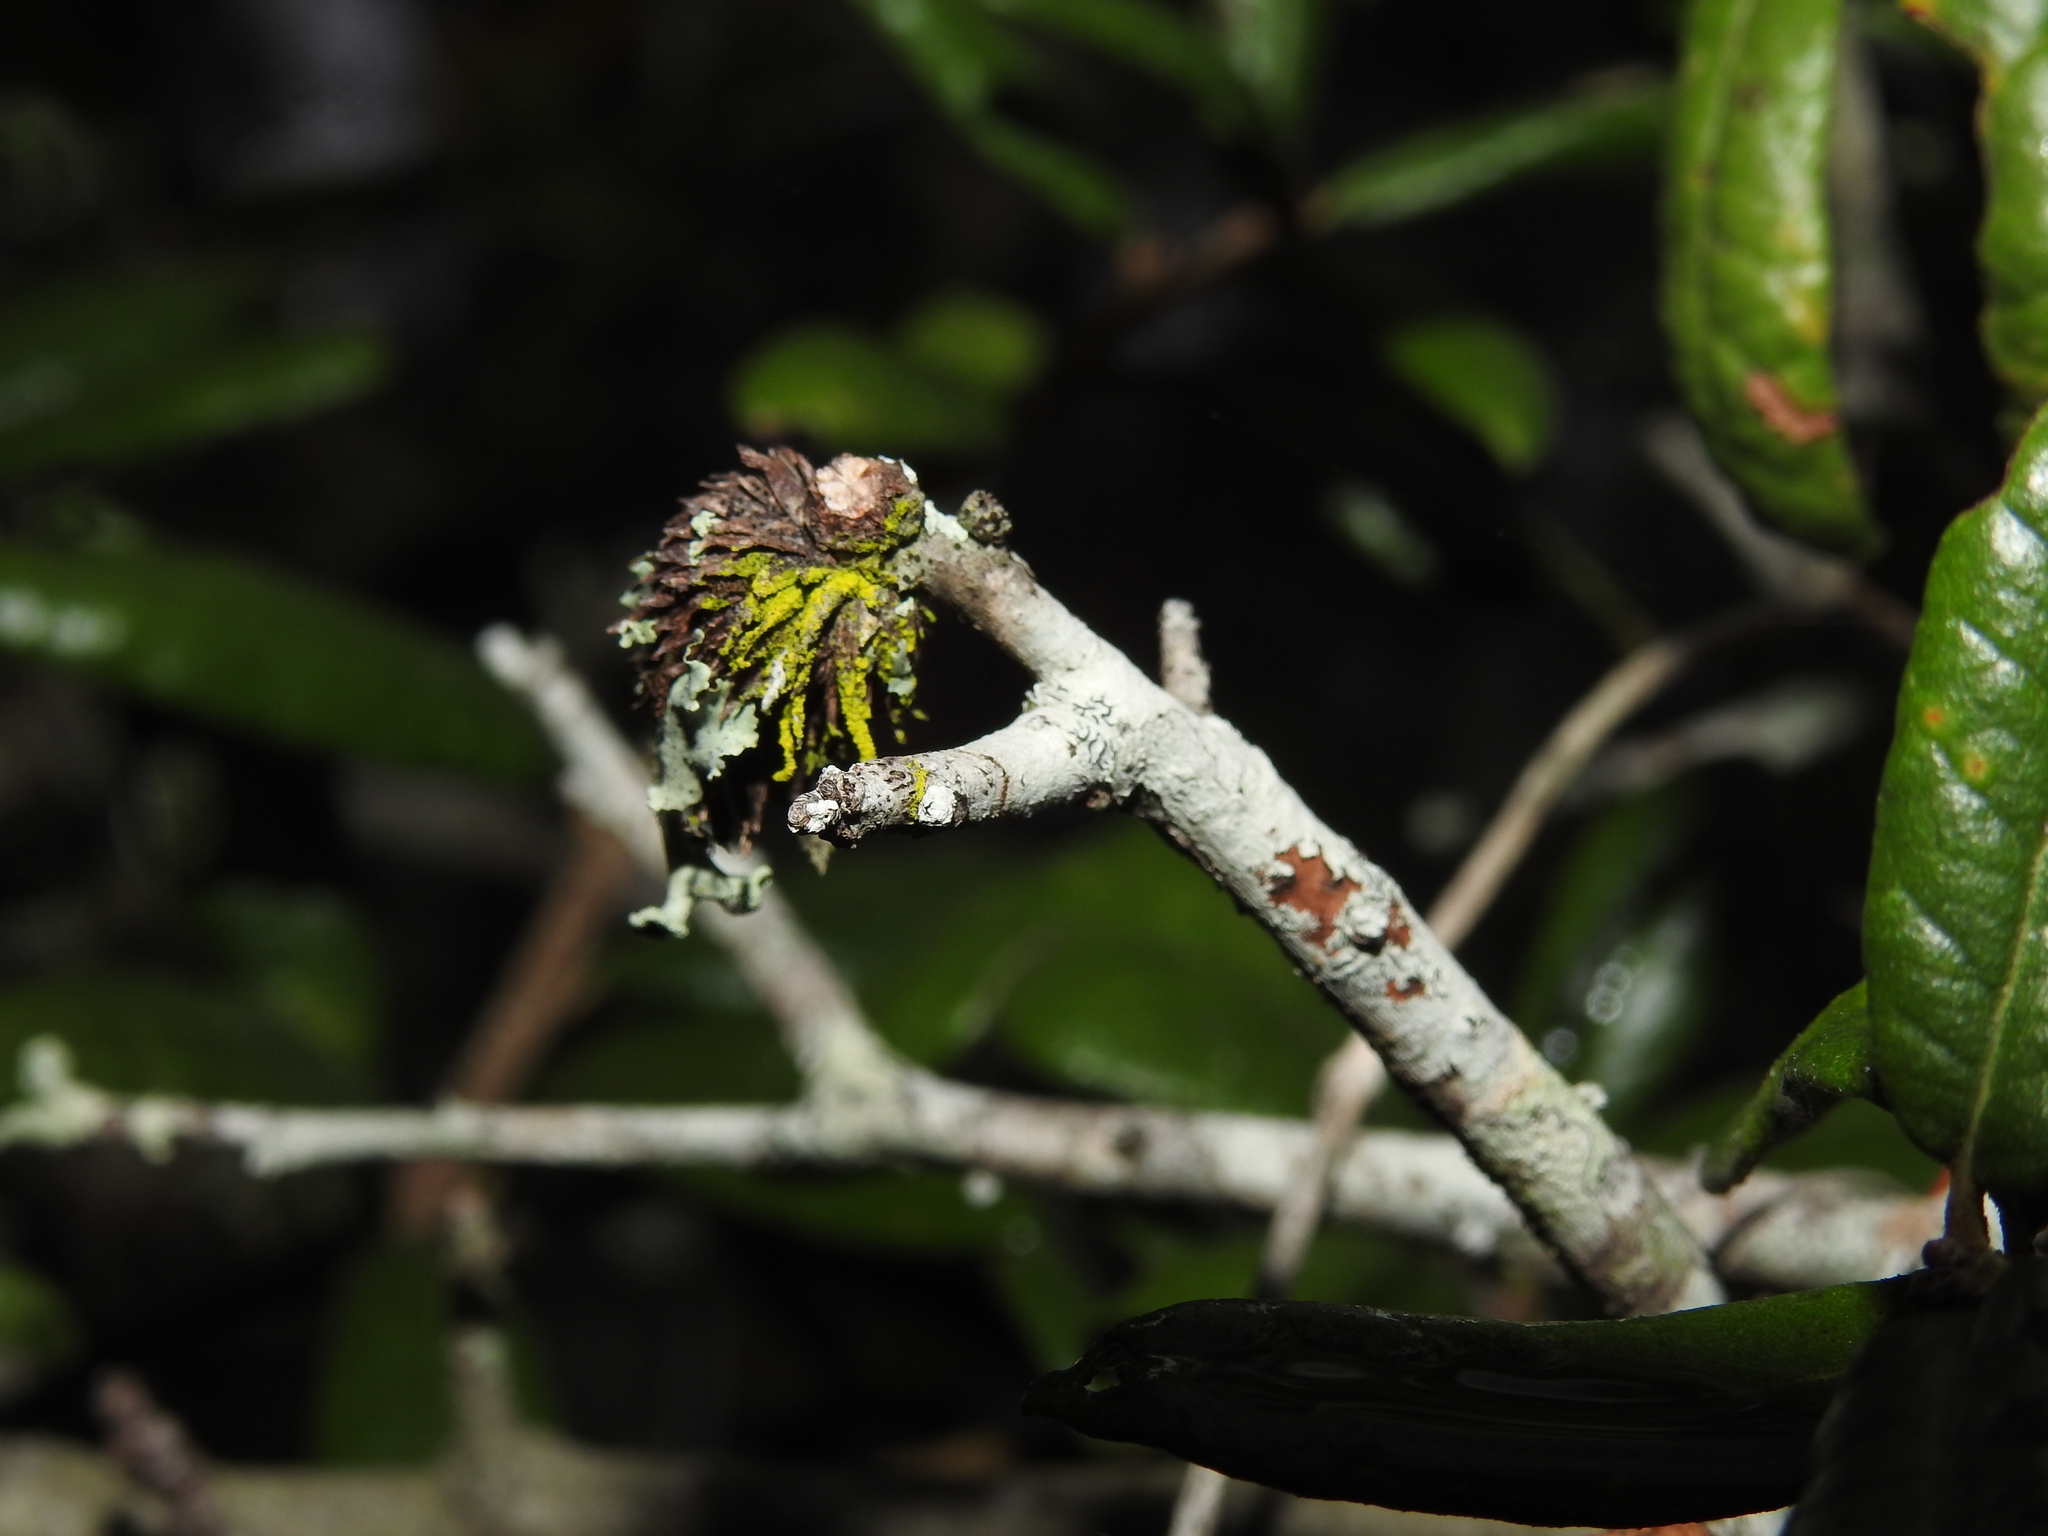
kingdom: Animalia
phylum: Arthropoda
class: Insecta
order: Hymenoptera
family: Cynipidae
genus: Andricus
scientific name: Andricus quercusfoliatus
